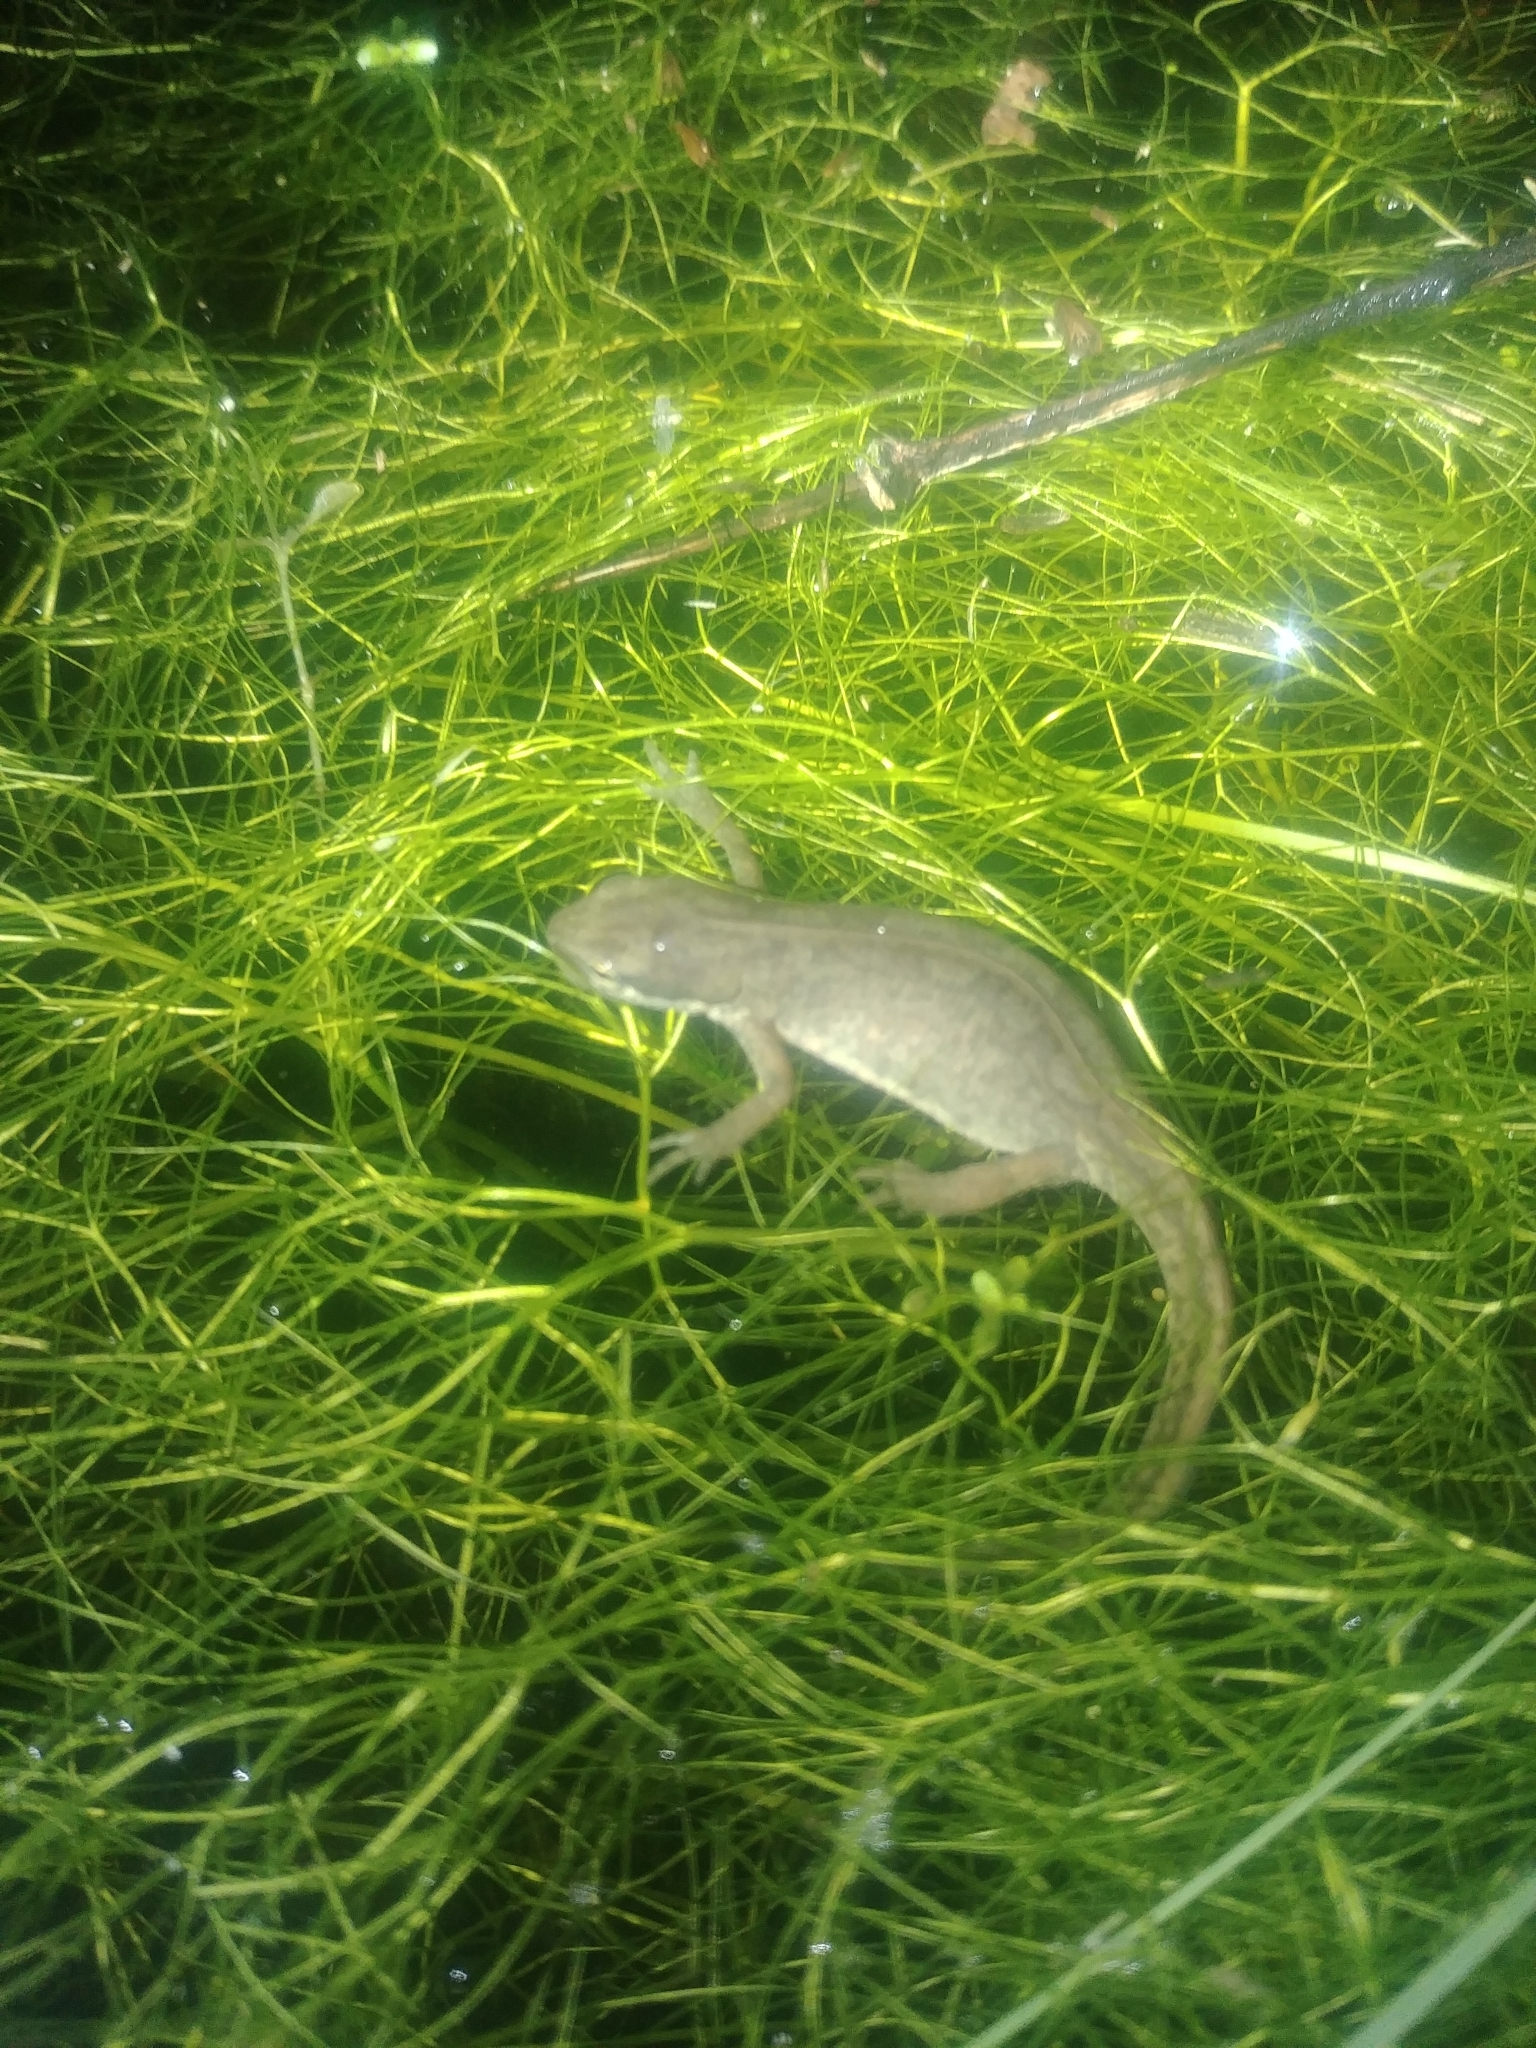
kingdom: Animalia
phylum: Chordata
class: Amphibia
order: Caudata
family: Salamandridae
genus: Lissotriton
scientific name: Lissotriton helveticus
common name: Palmate newt
